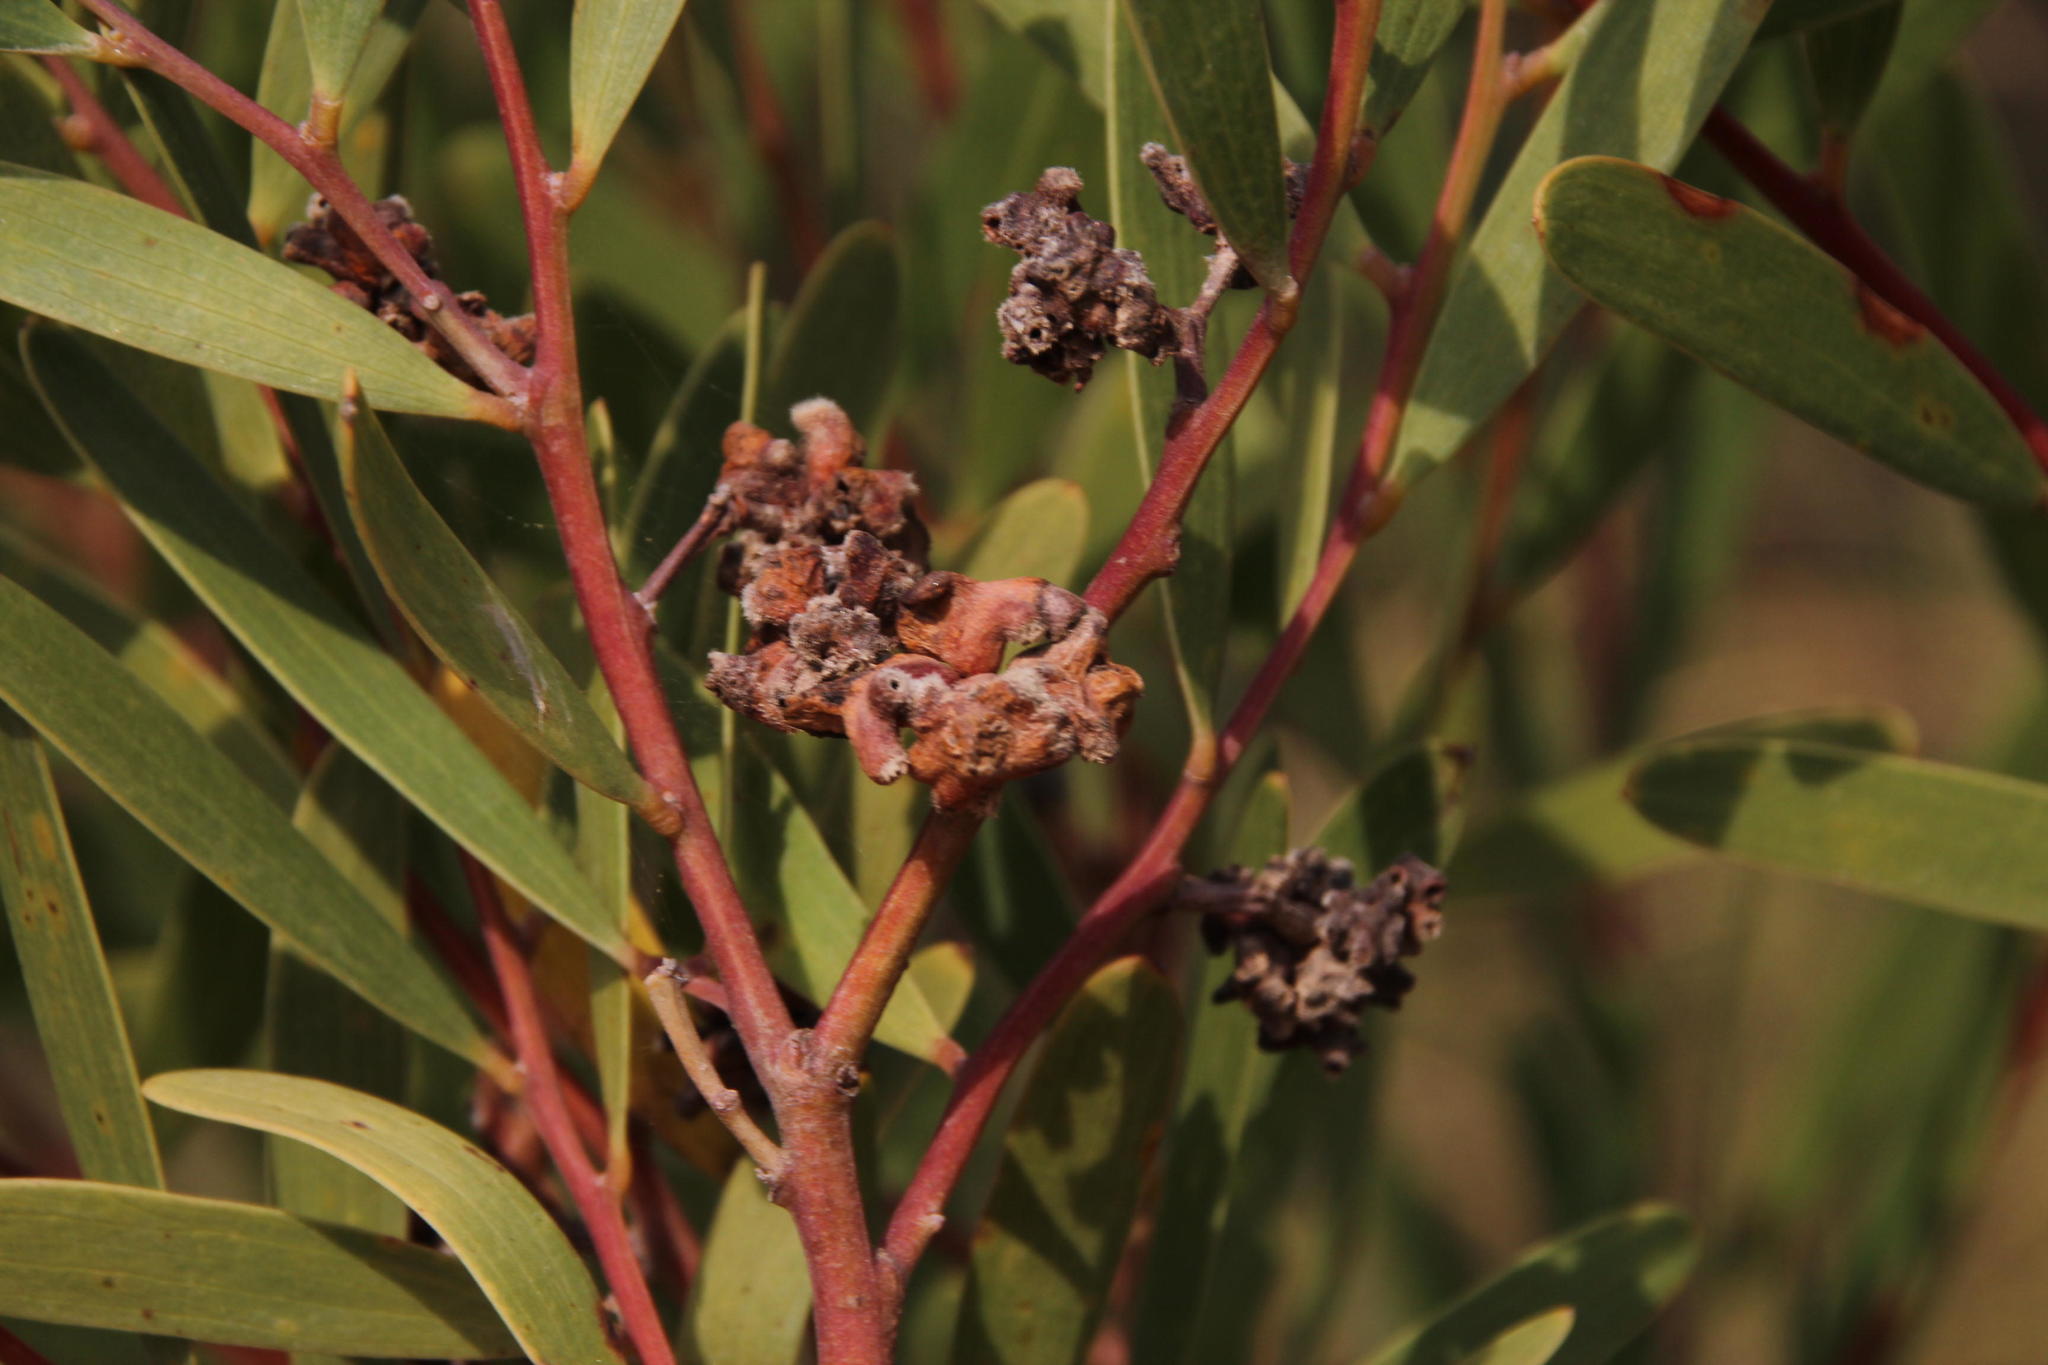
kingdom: Animalia
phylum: Arthropoda
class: Insecta
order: Diptera
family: Cecidomyiidae
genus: Dasineura
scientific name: Dasineura dielsi
